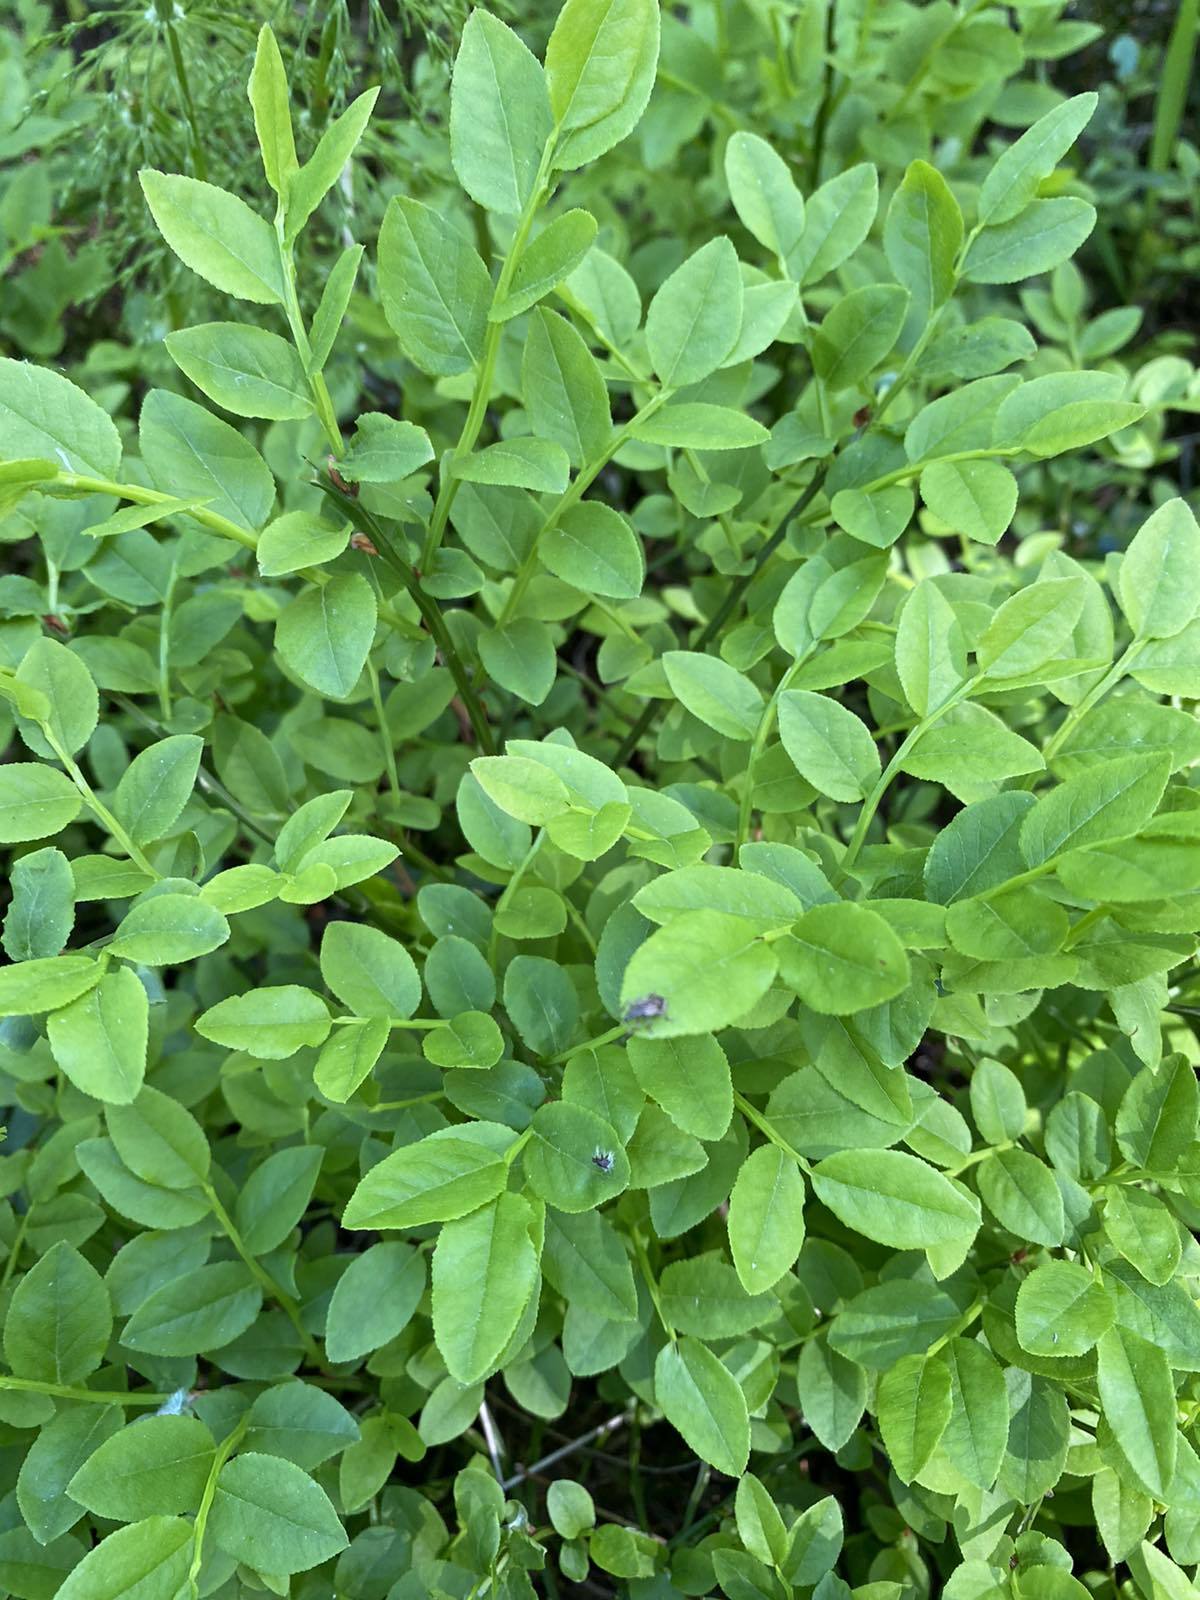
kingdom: Plantae
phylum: Tracheophyta
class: Magnoliopsida
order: Ericales
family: Ericaceae
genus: Vaccinium
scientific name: Vaccinium myrtillus
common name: Bilberry
